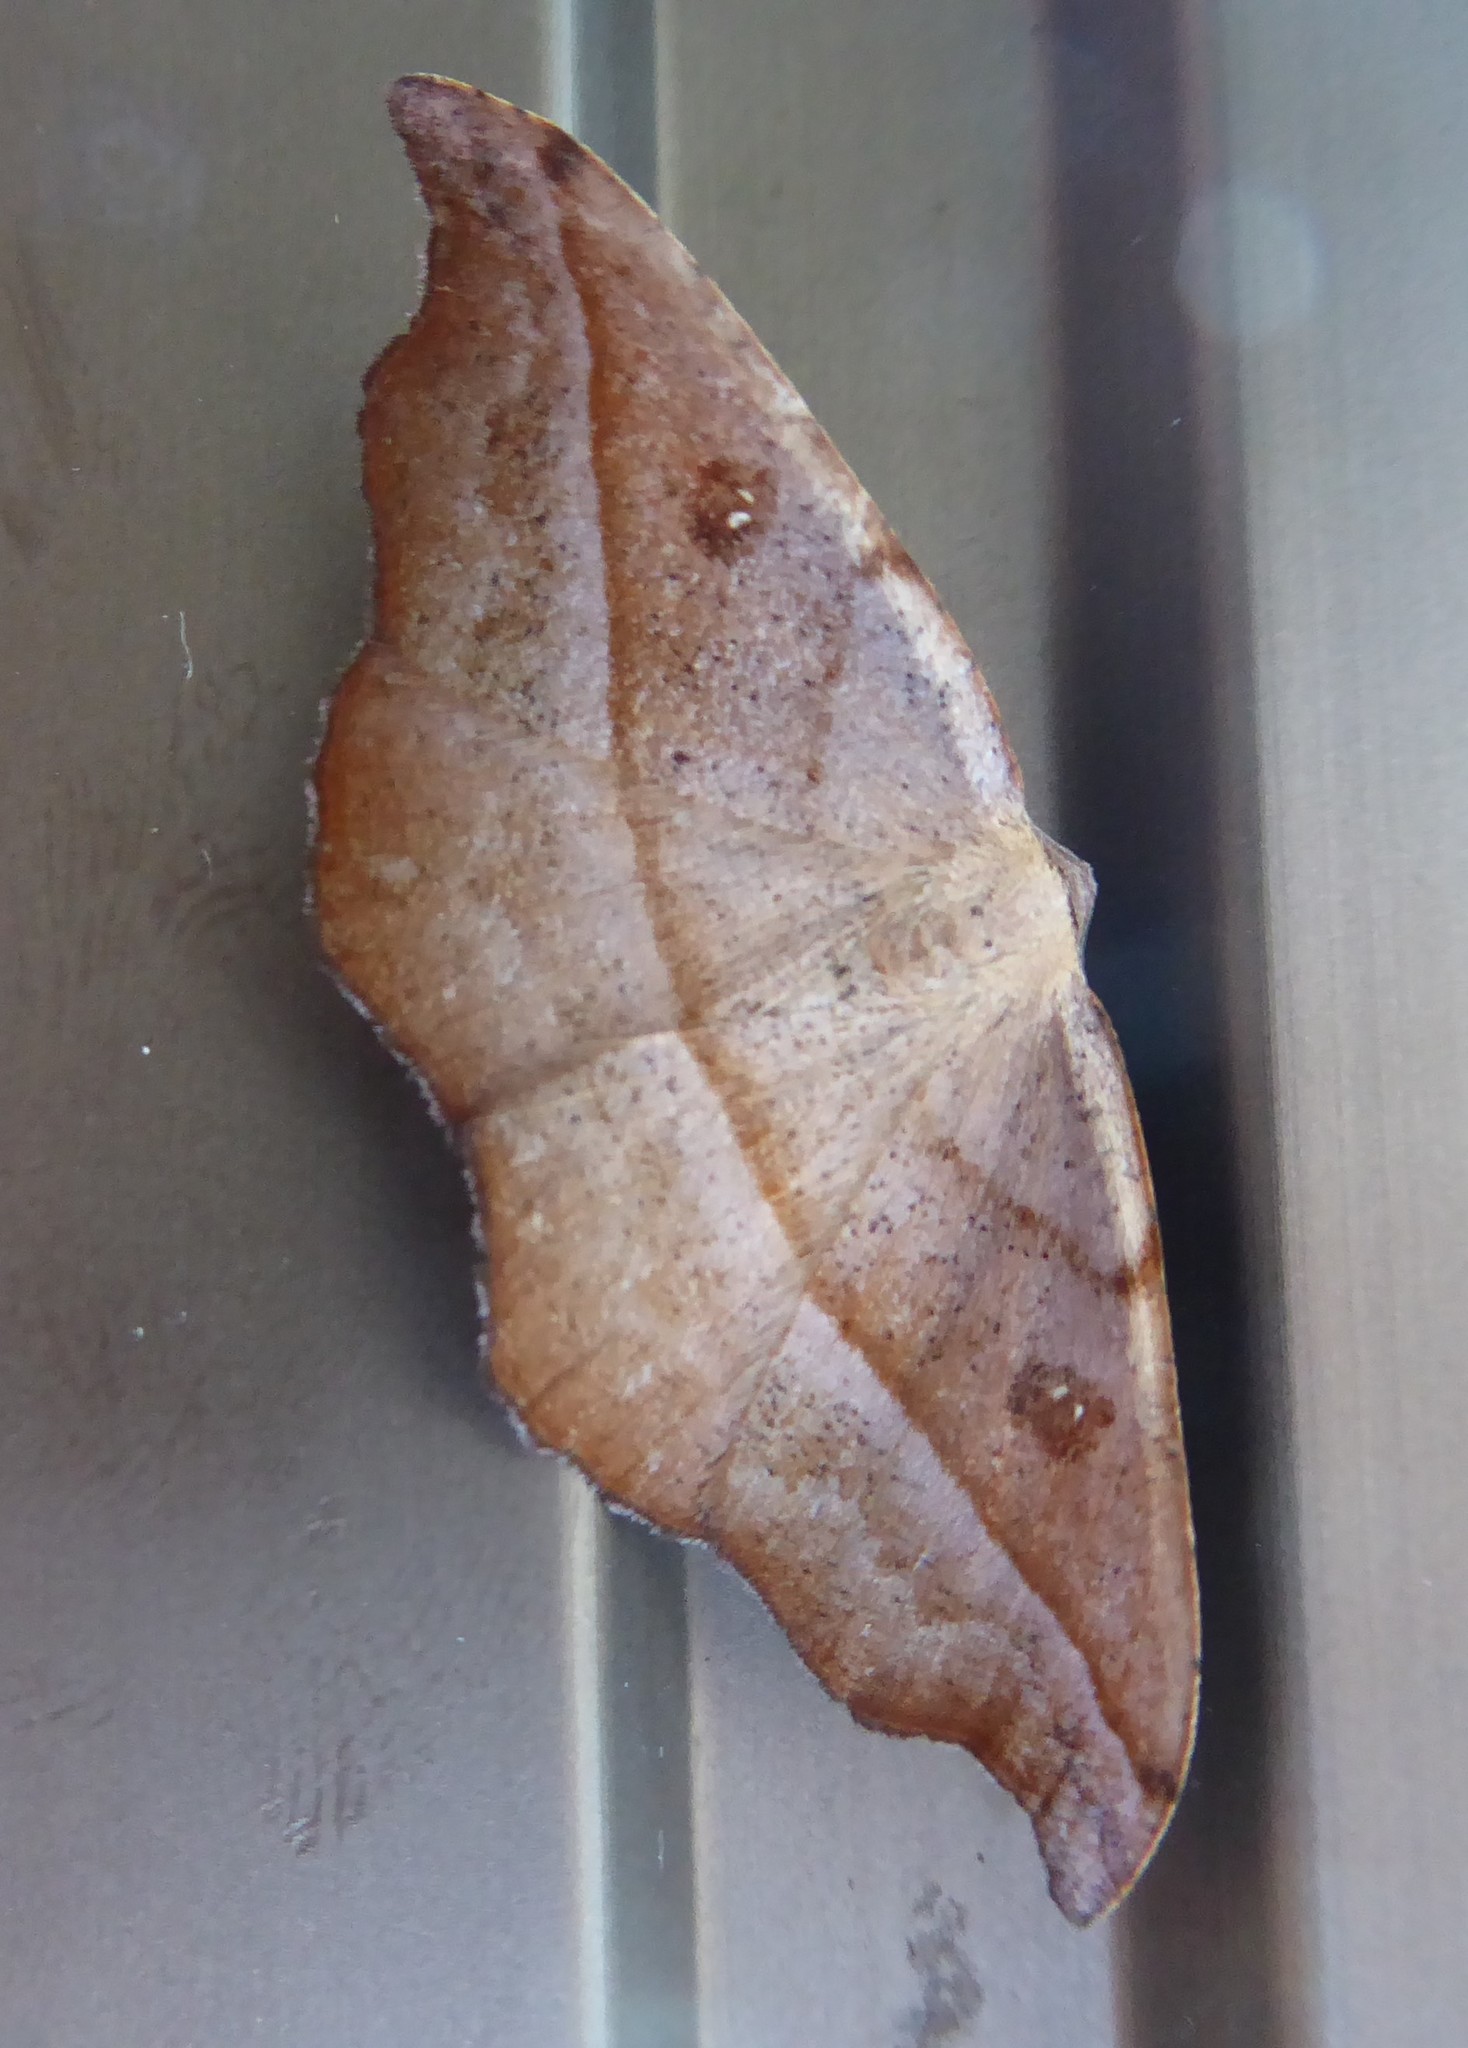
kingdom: Animalia
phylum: Arthropoda
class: Insecta
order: Lepidoptera
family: Geometridae
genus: Sarisa
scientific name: Sarisa muriferata
